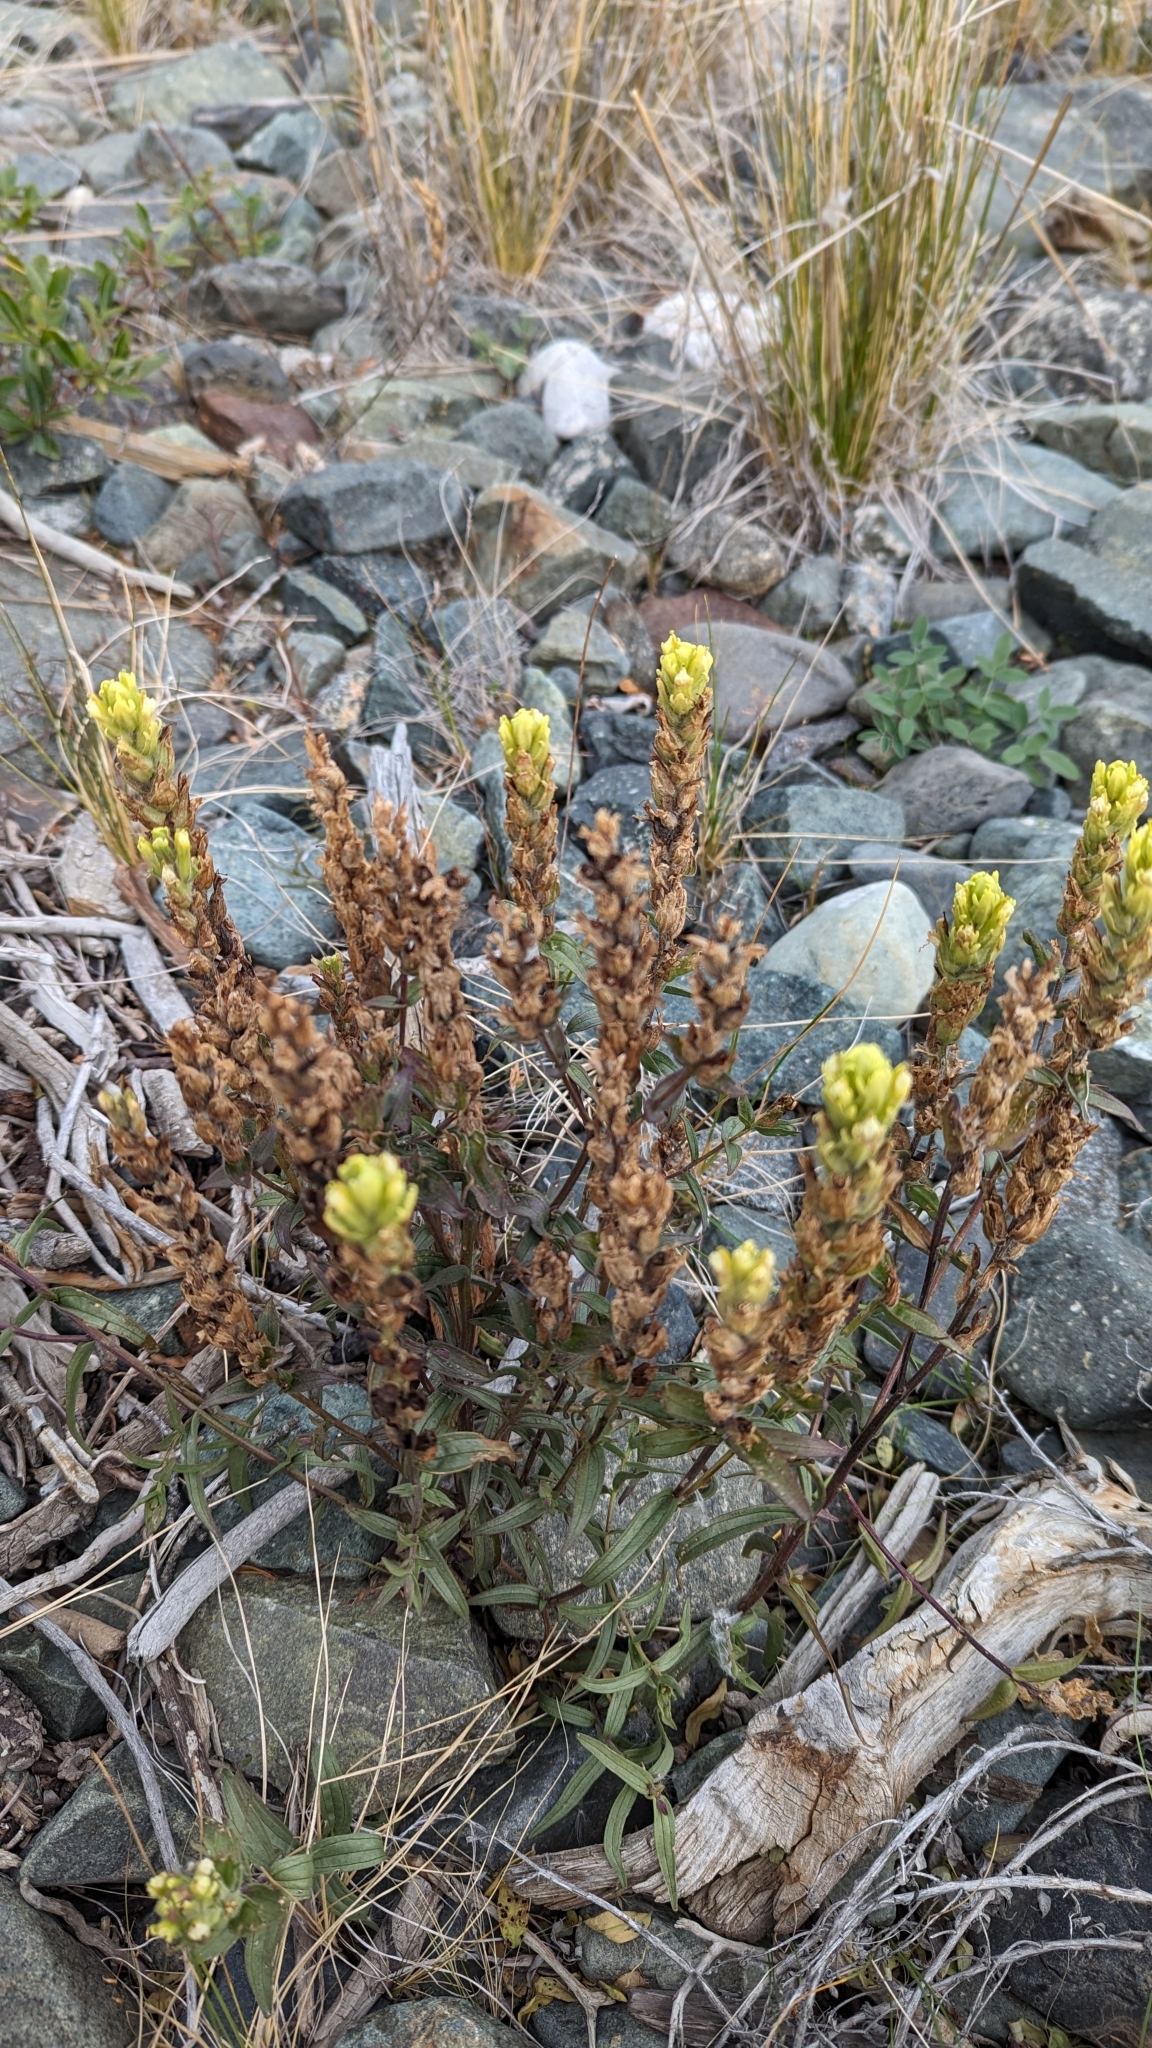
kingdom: Plantae
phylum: Tracheophyta
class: Magnoliopsida
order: Lamiales
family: Orobanchaceae
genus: Castilleja
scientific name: Castilleja unalaschcensis
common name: Unalaska paintbrush
